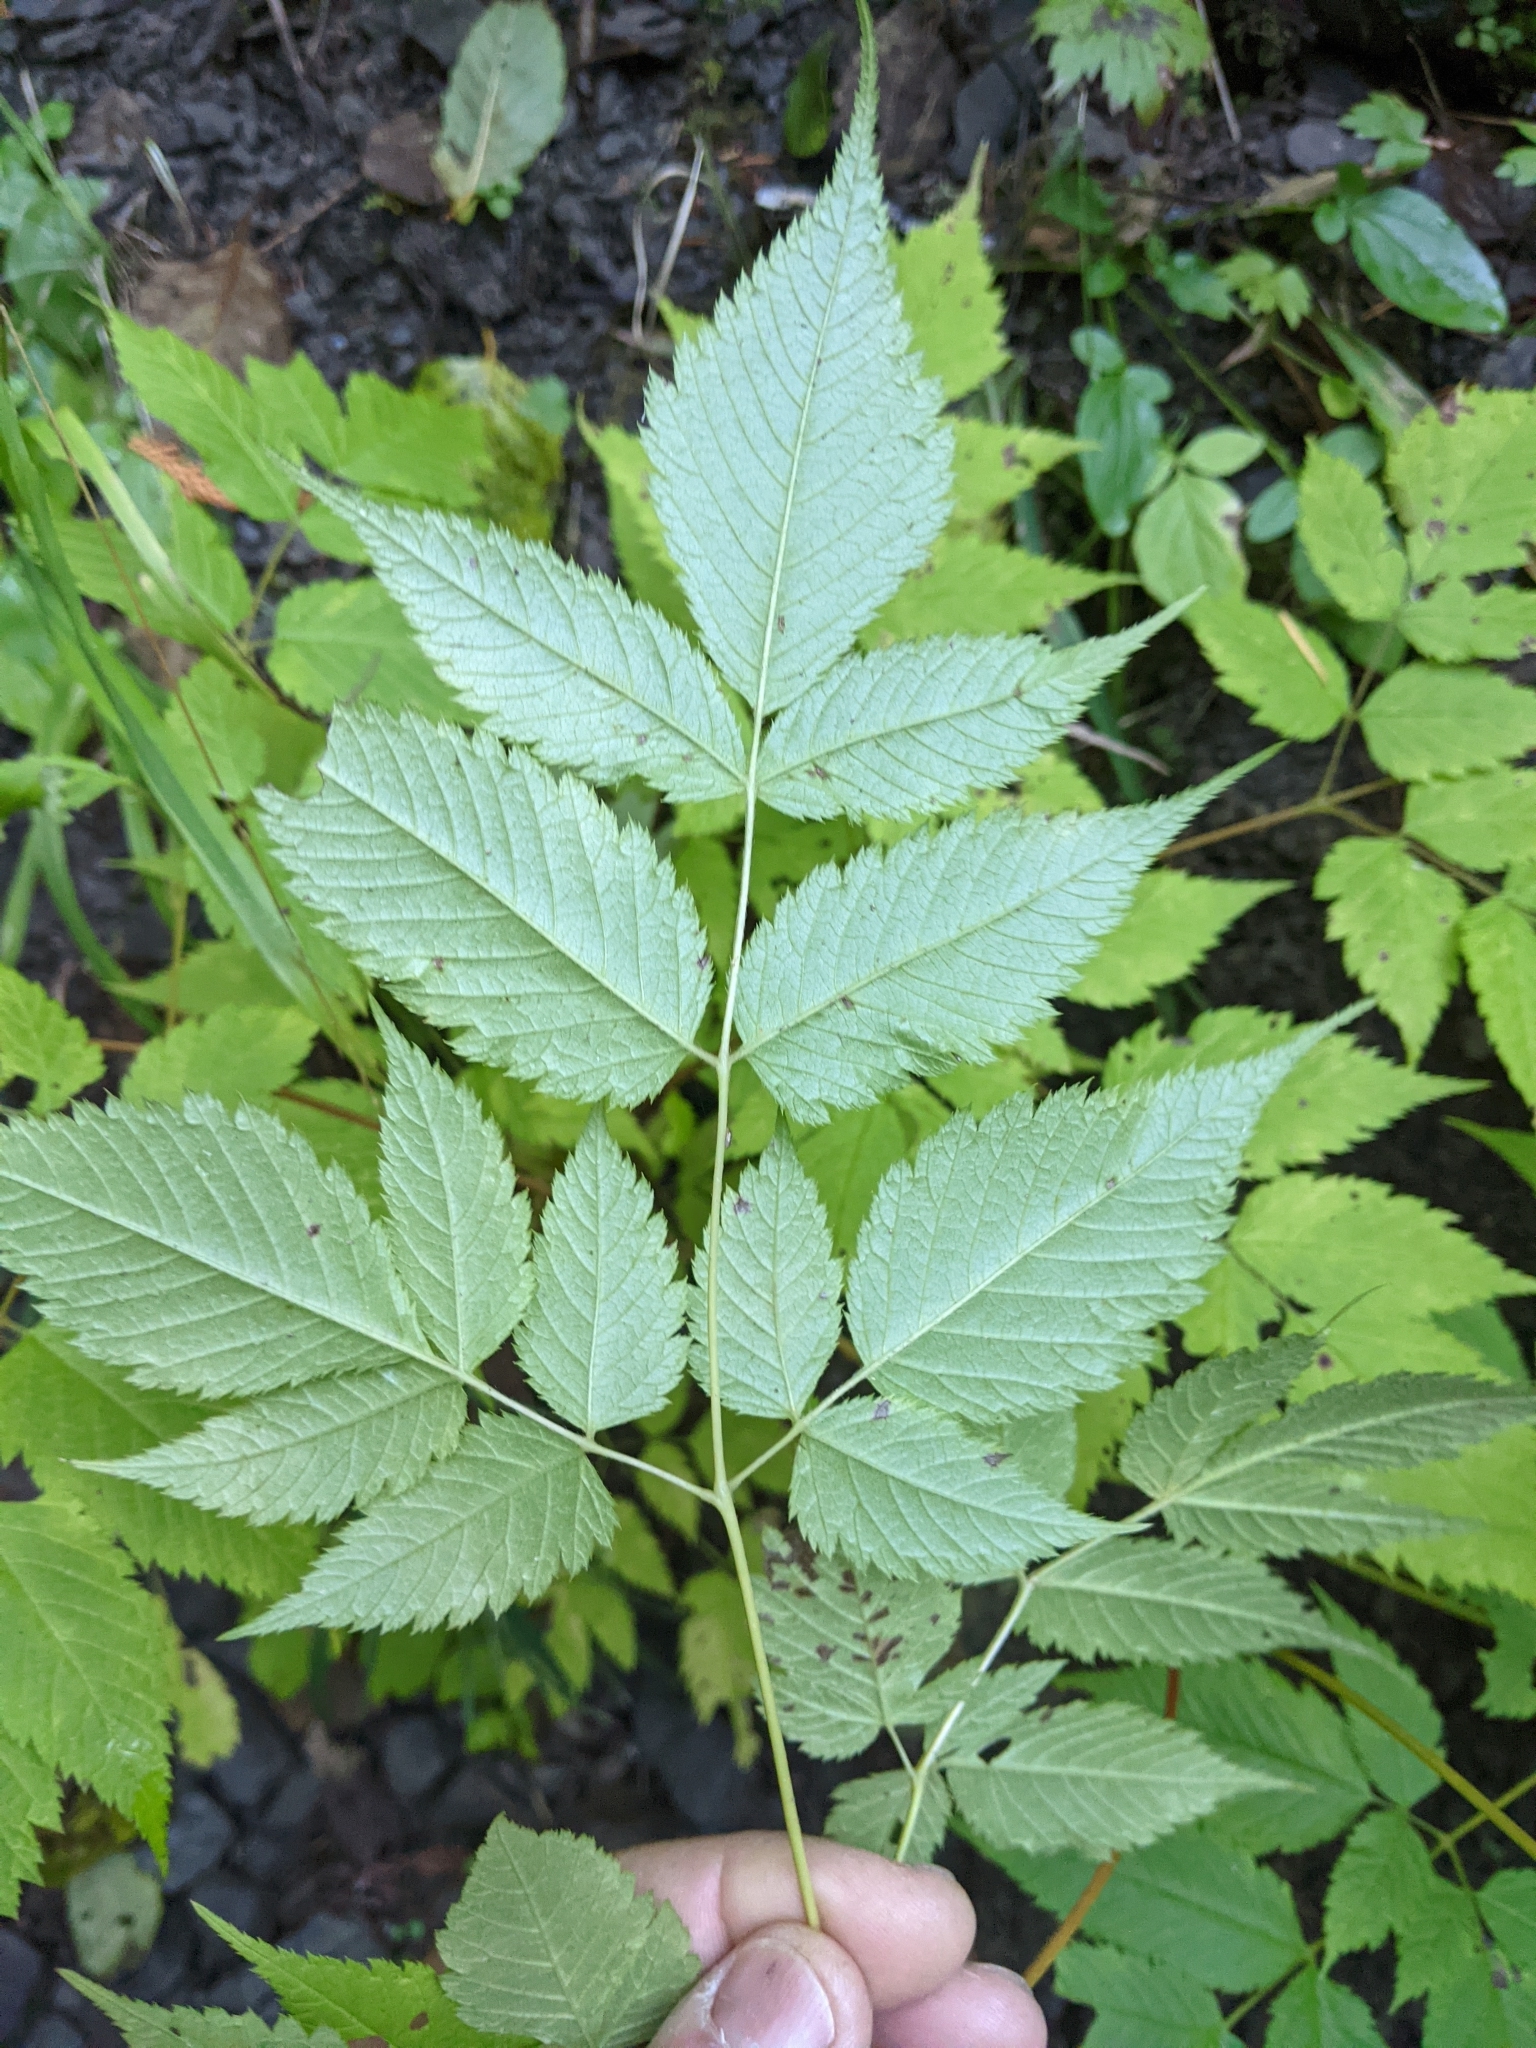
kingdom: Plantae
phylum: Tracheophyta
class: Magnoliopsida
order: Rosales
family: Rosaceae
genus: Aruncus
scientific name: Aruncus dioicus
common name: Buck's-beard
